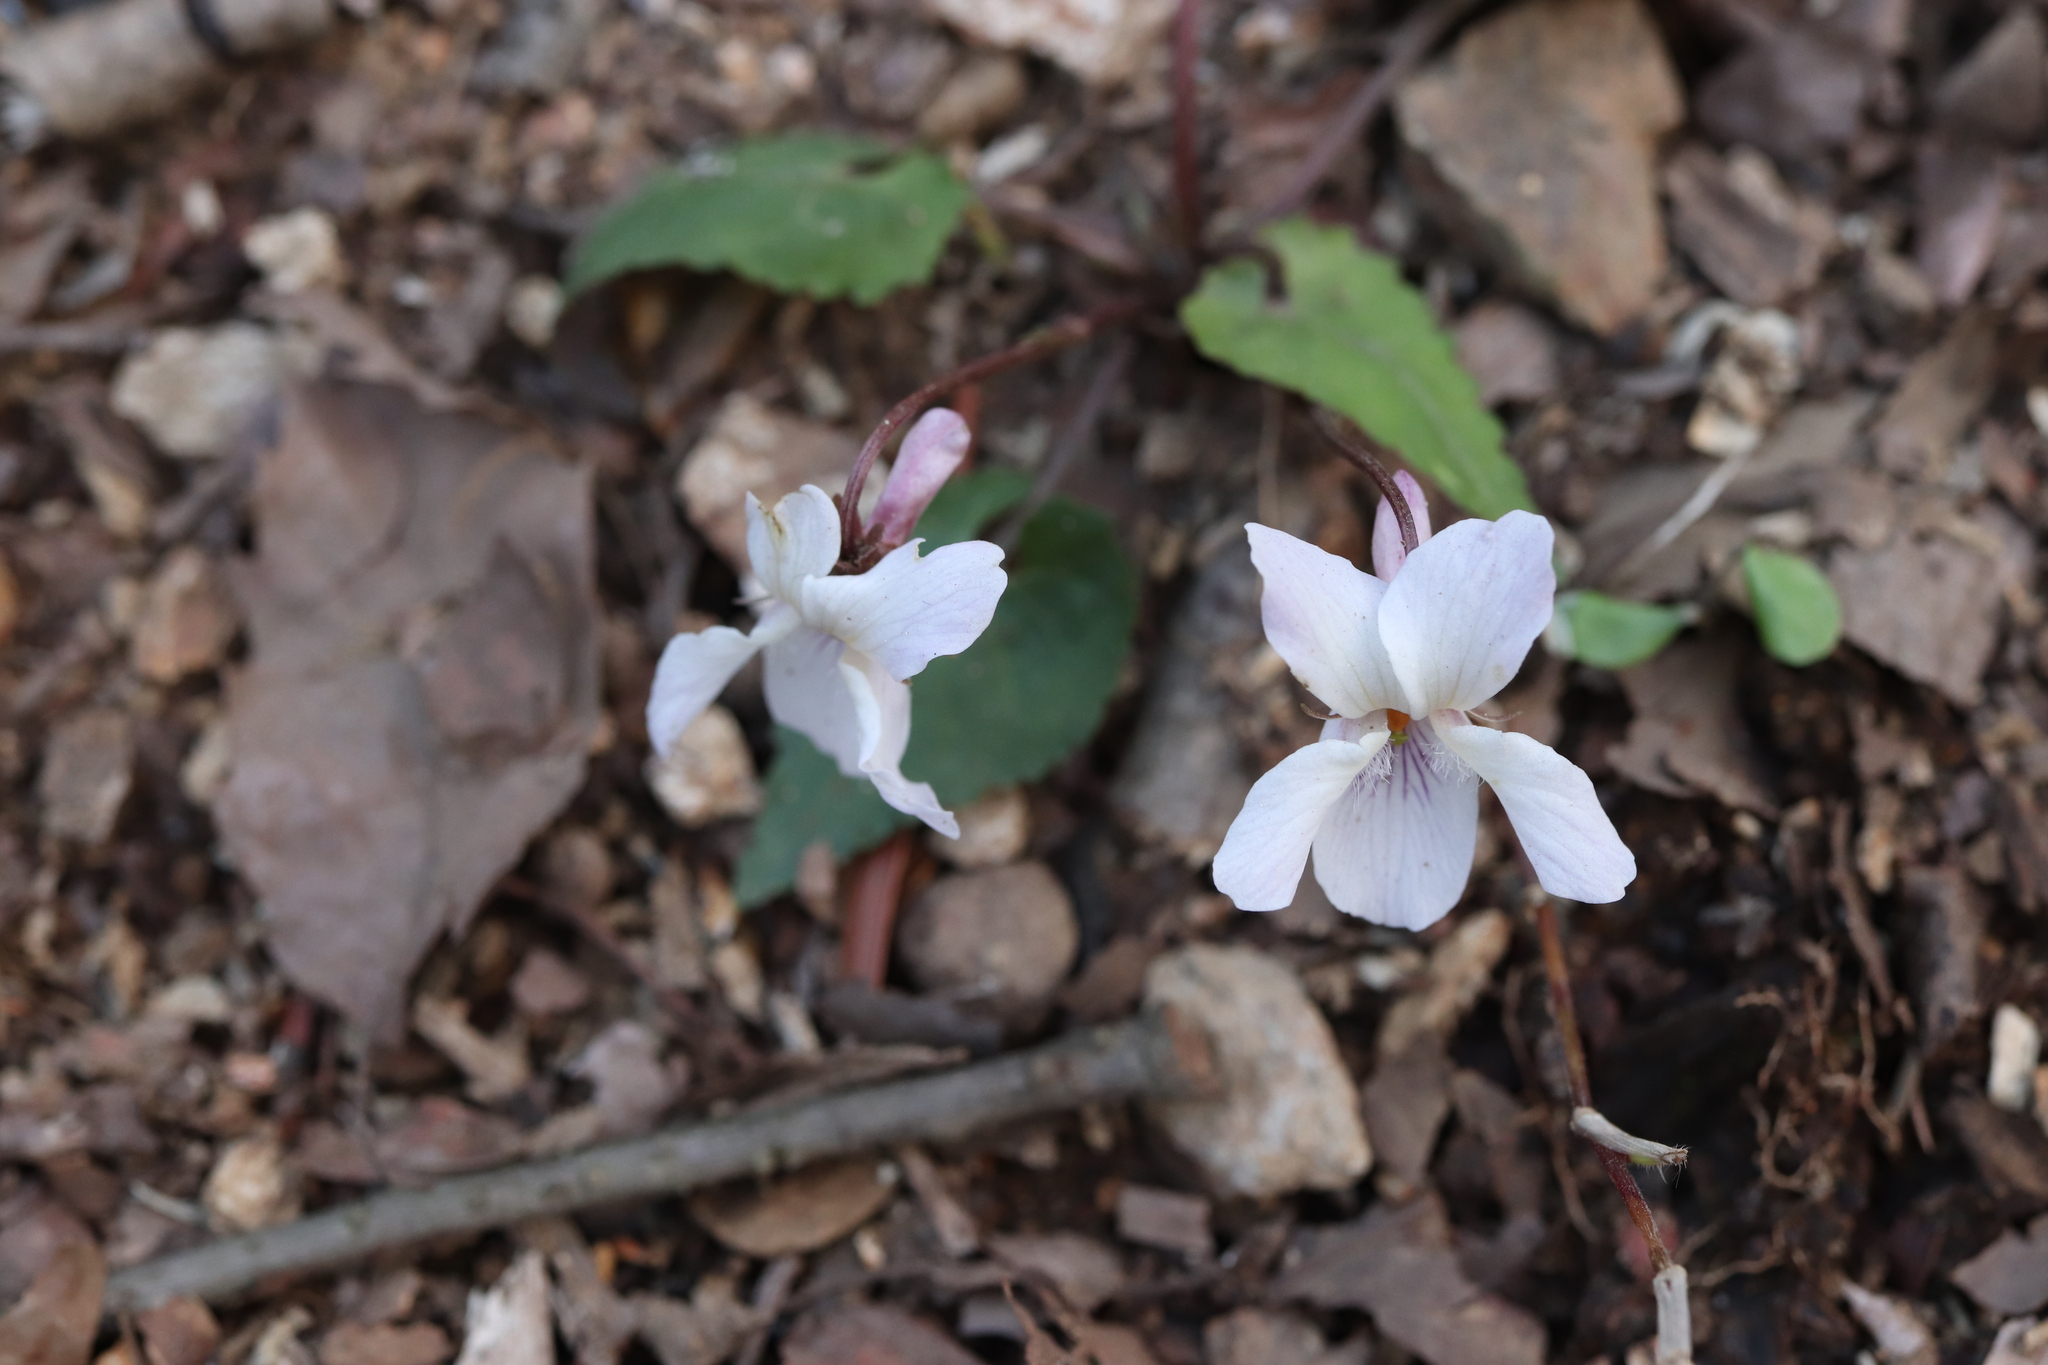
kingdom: Plantae
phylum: Tracheophyta
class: Magnoliopsida
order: Malpighiales
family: Violaceae
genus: Viola
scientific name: Viola tokubuchiana
